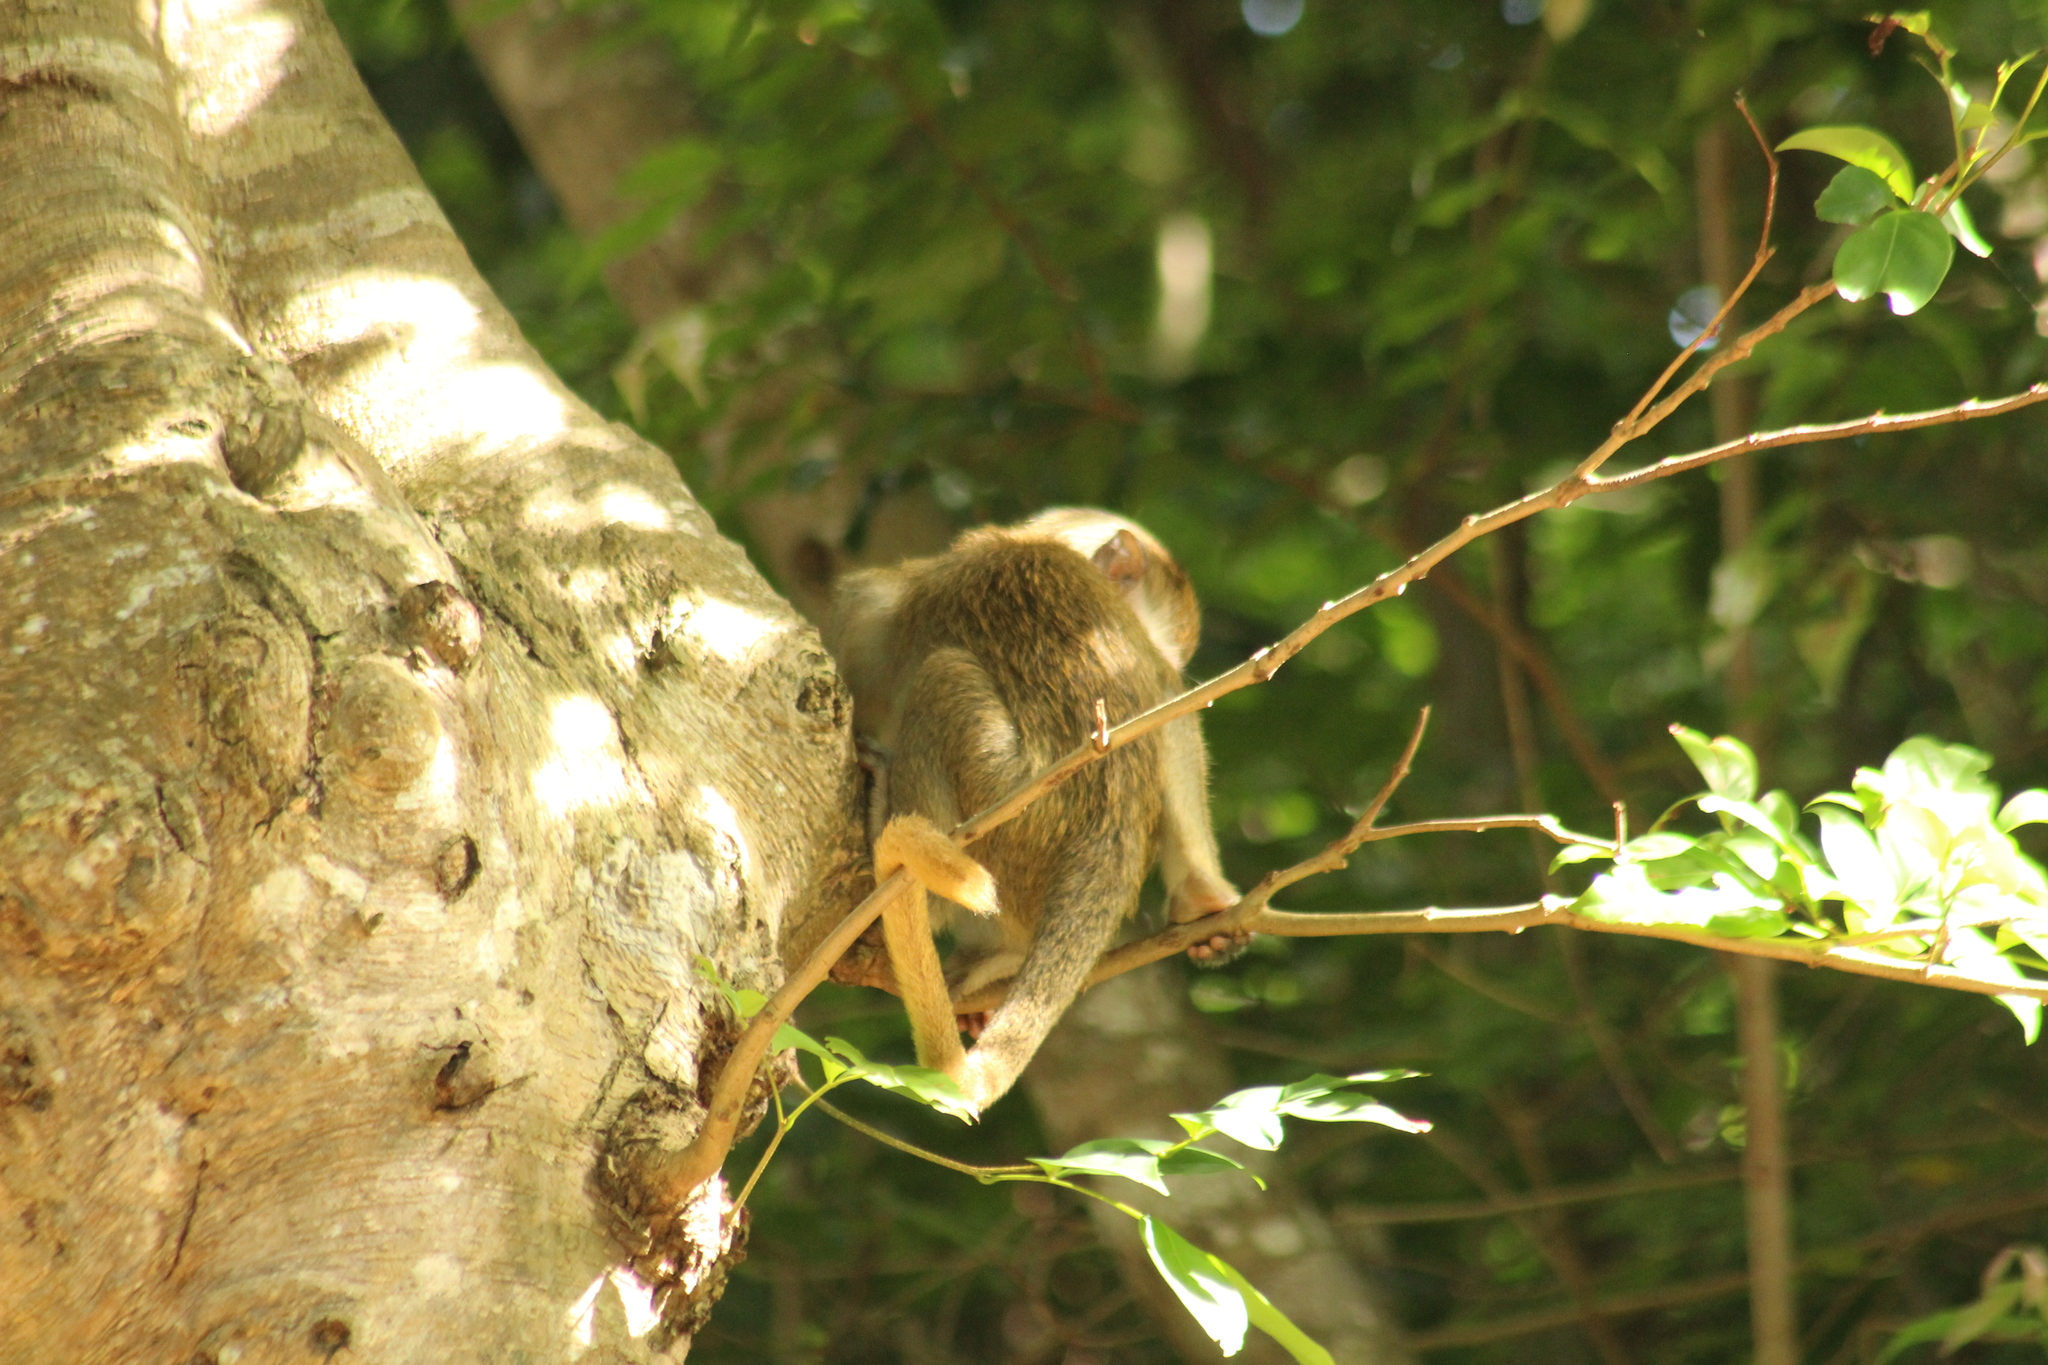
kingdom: Animalia
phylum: Chordata
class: Mammalia
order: Primates
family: Cercopithecidae
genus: Chlorocebus
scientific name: Chlorocebus sabaeus
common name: Green monkey
